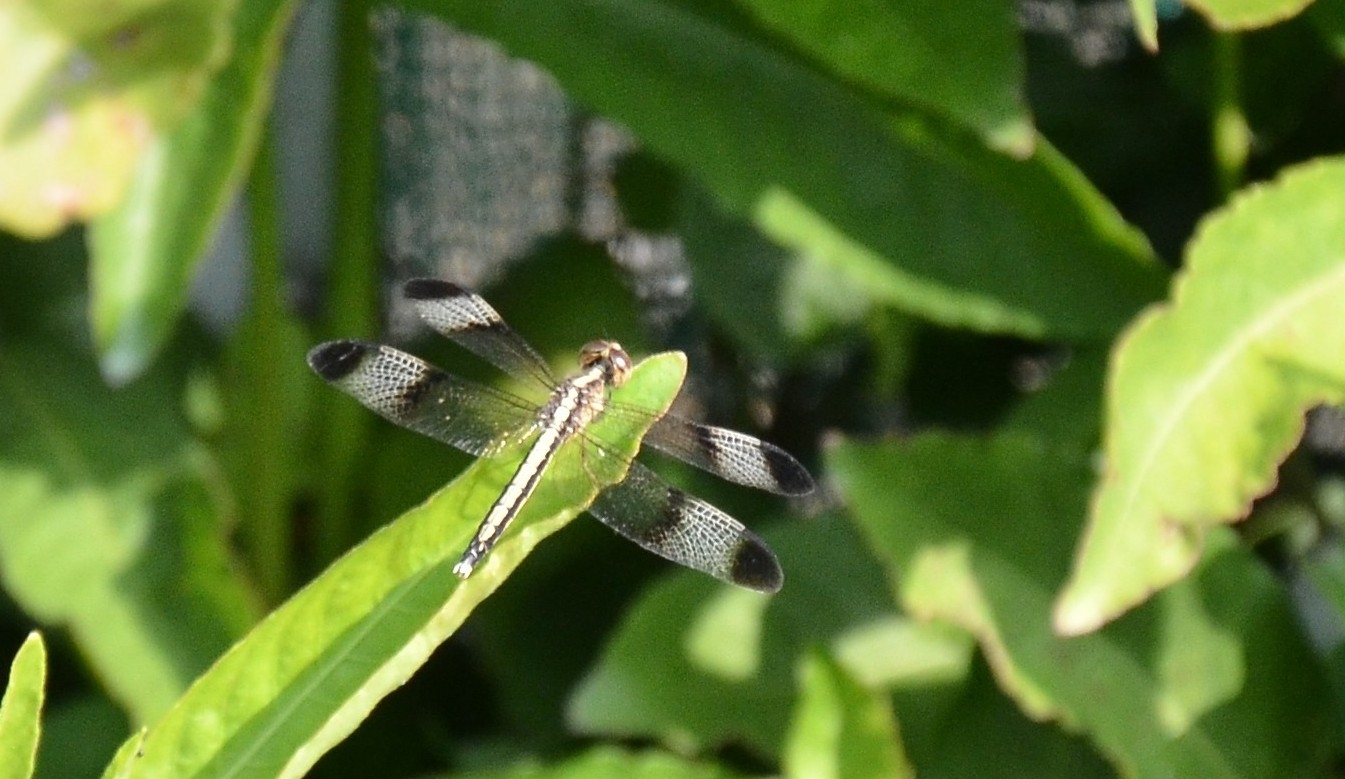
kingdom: Animalia
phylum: Arthropoda
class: Insecta
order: Odonata
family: Libellulidae
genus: Neurothemis
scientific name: Neurothemis tullia
